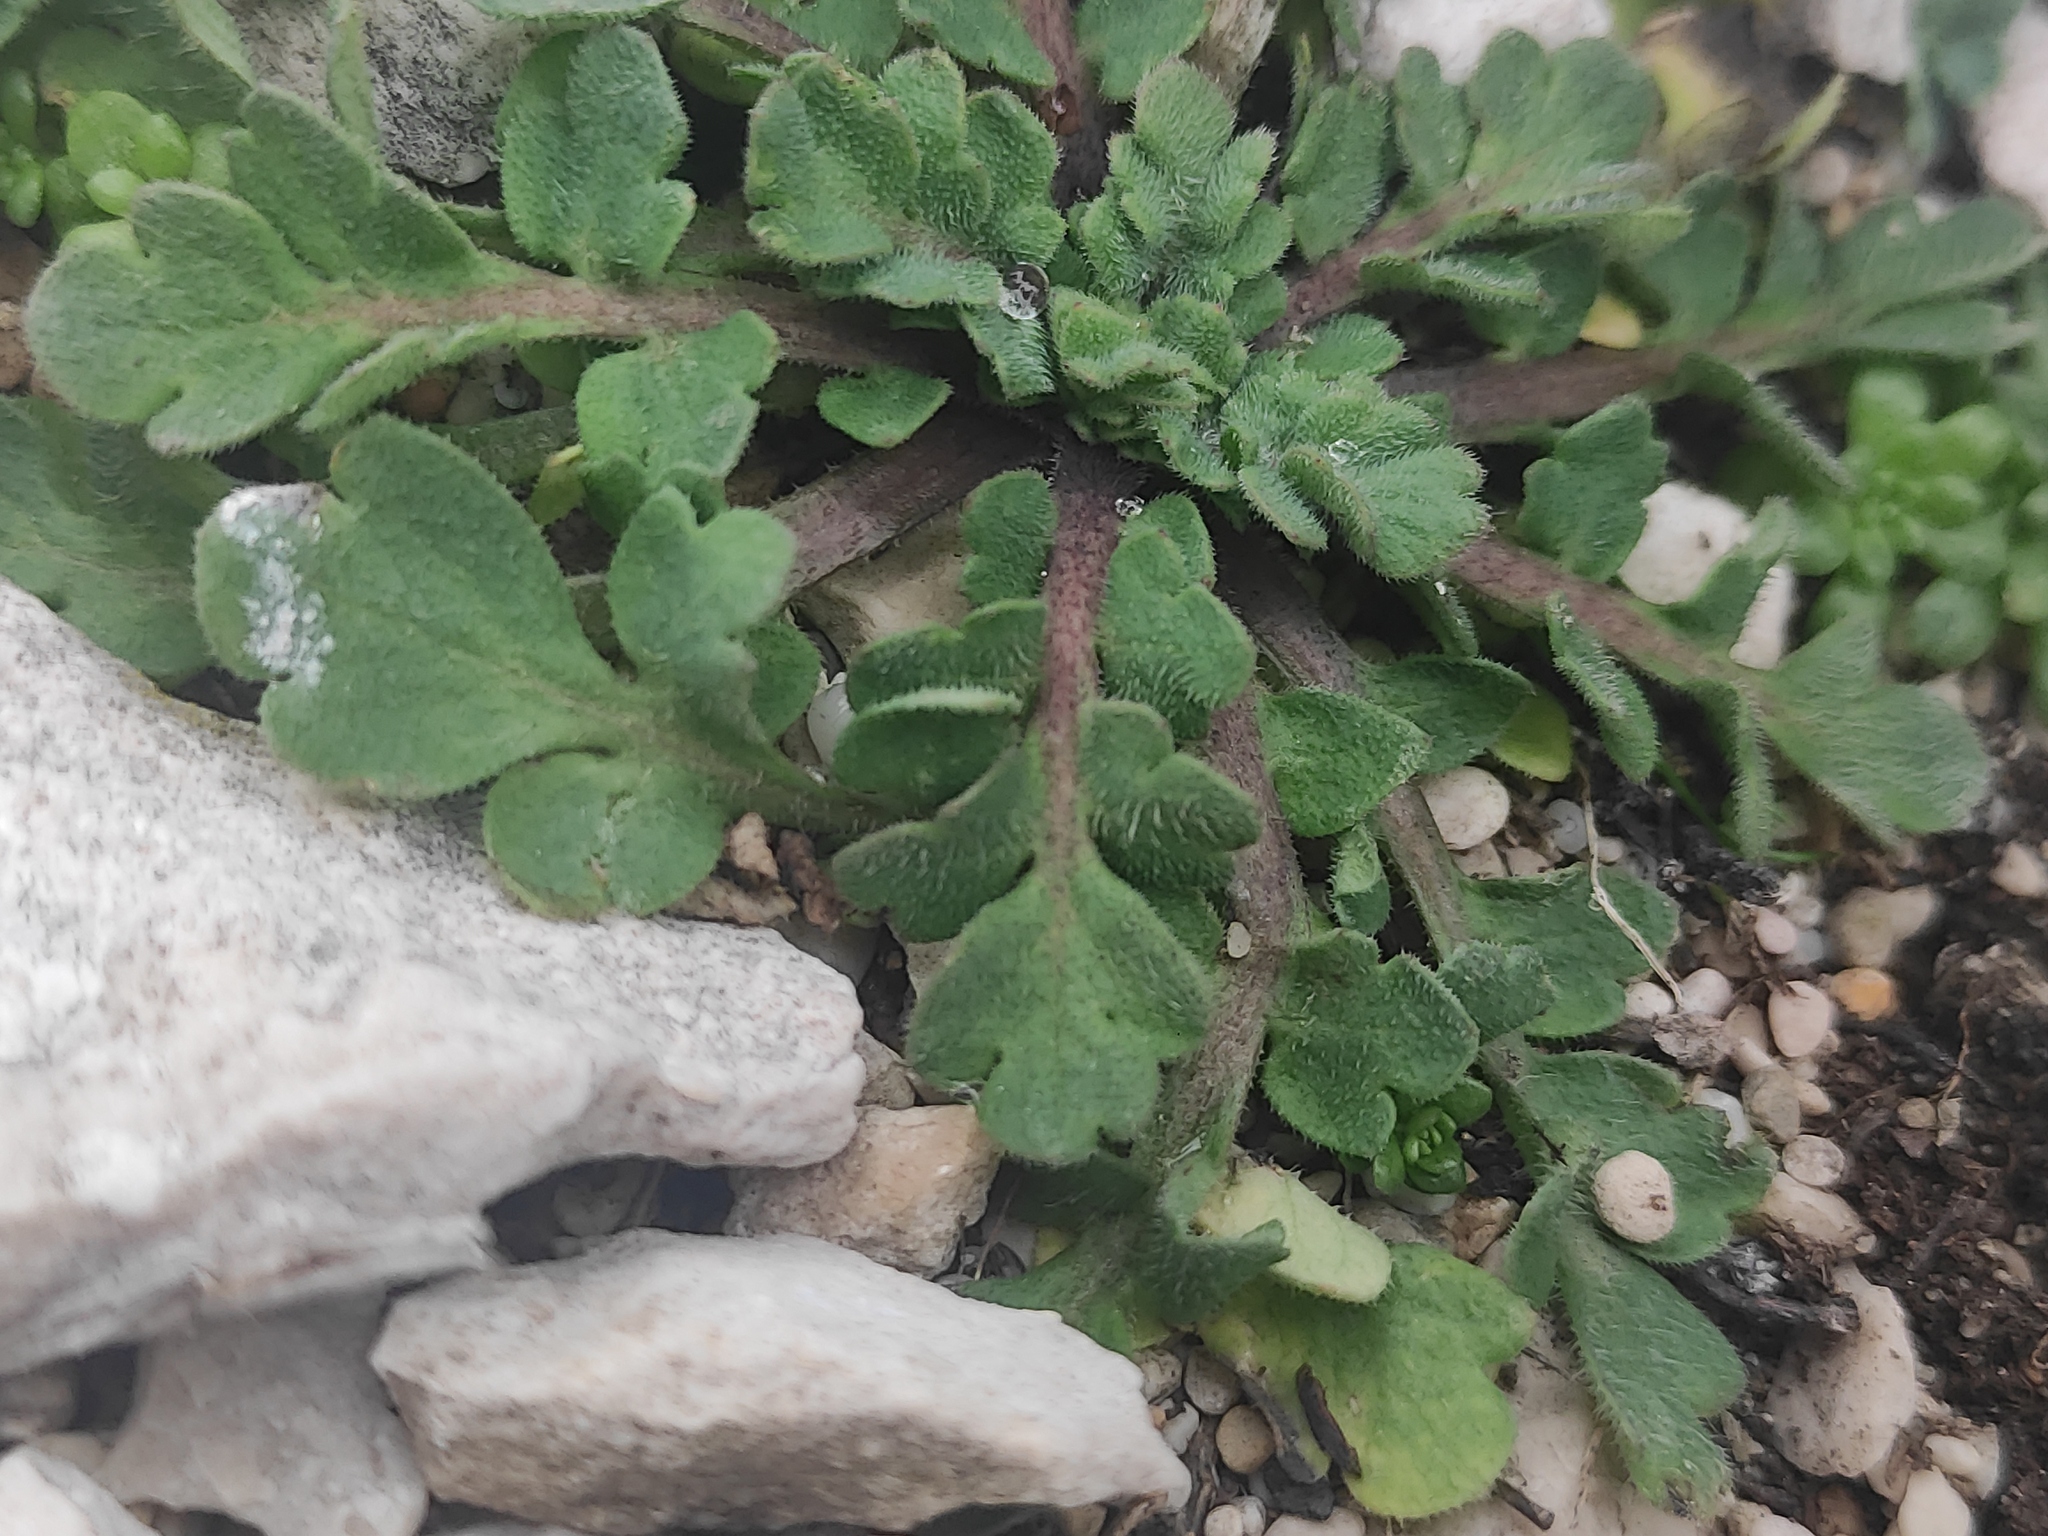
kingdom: Plantae
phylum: Tracheophyta
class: Magnoliopsida
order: Ranunculales
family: Papaveraceae
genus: Papaver
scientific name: Papaver rhoeas
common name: Corn poppy
